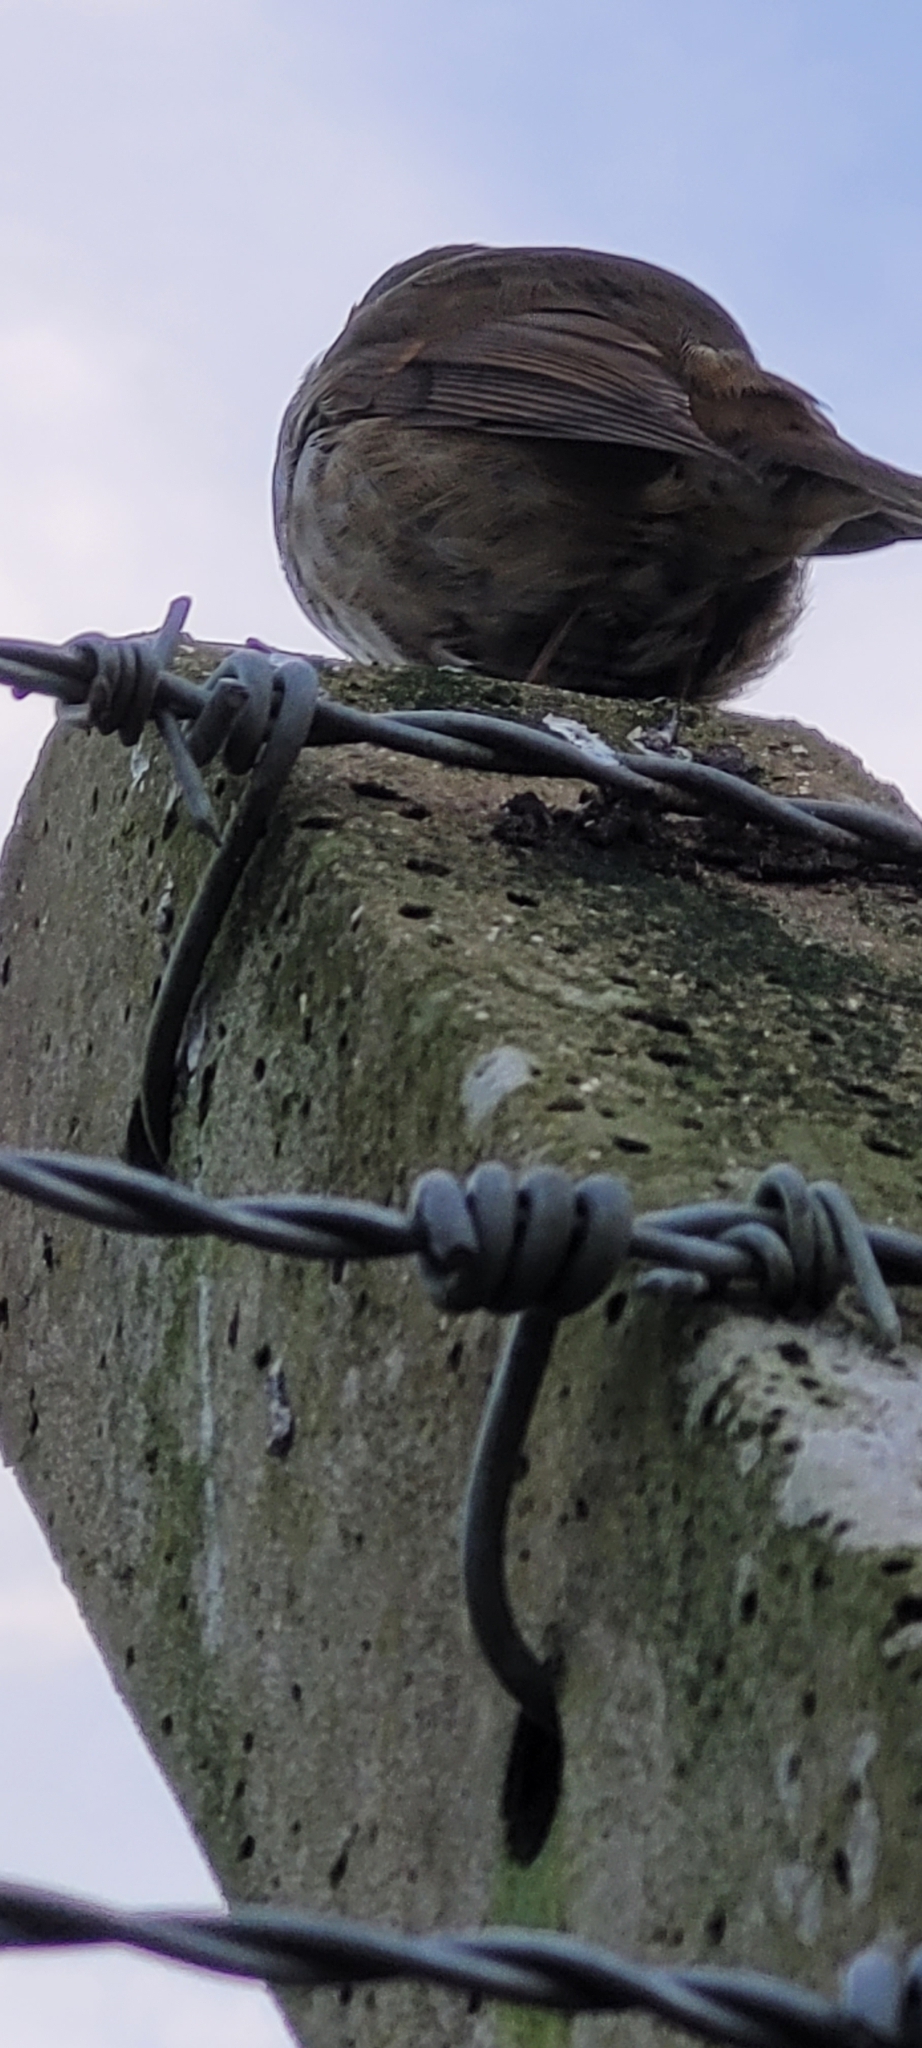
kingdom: Animalia
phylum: Chordata
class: Aves
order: Passeriformes
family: Muscicapidae
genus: Erithacus
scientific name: Erithacus rubecula
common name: European robin
